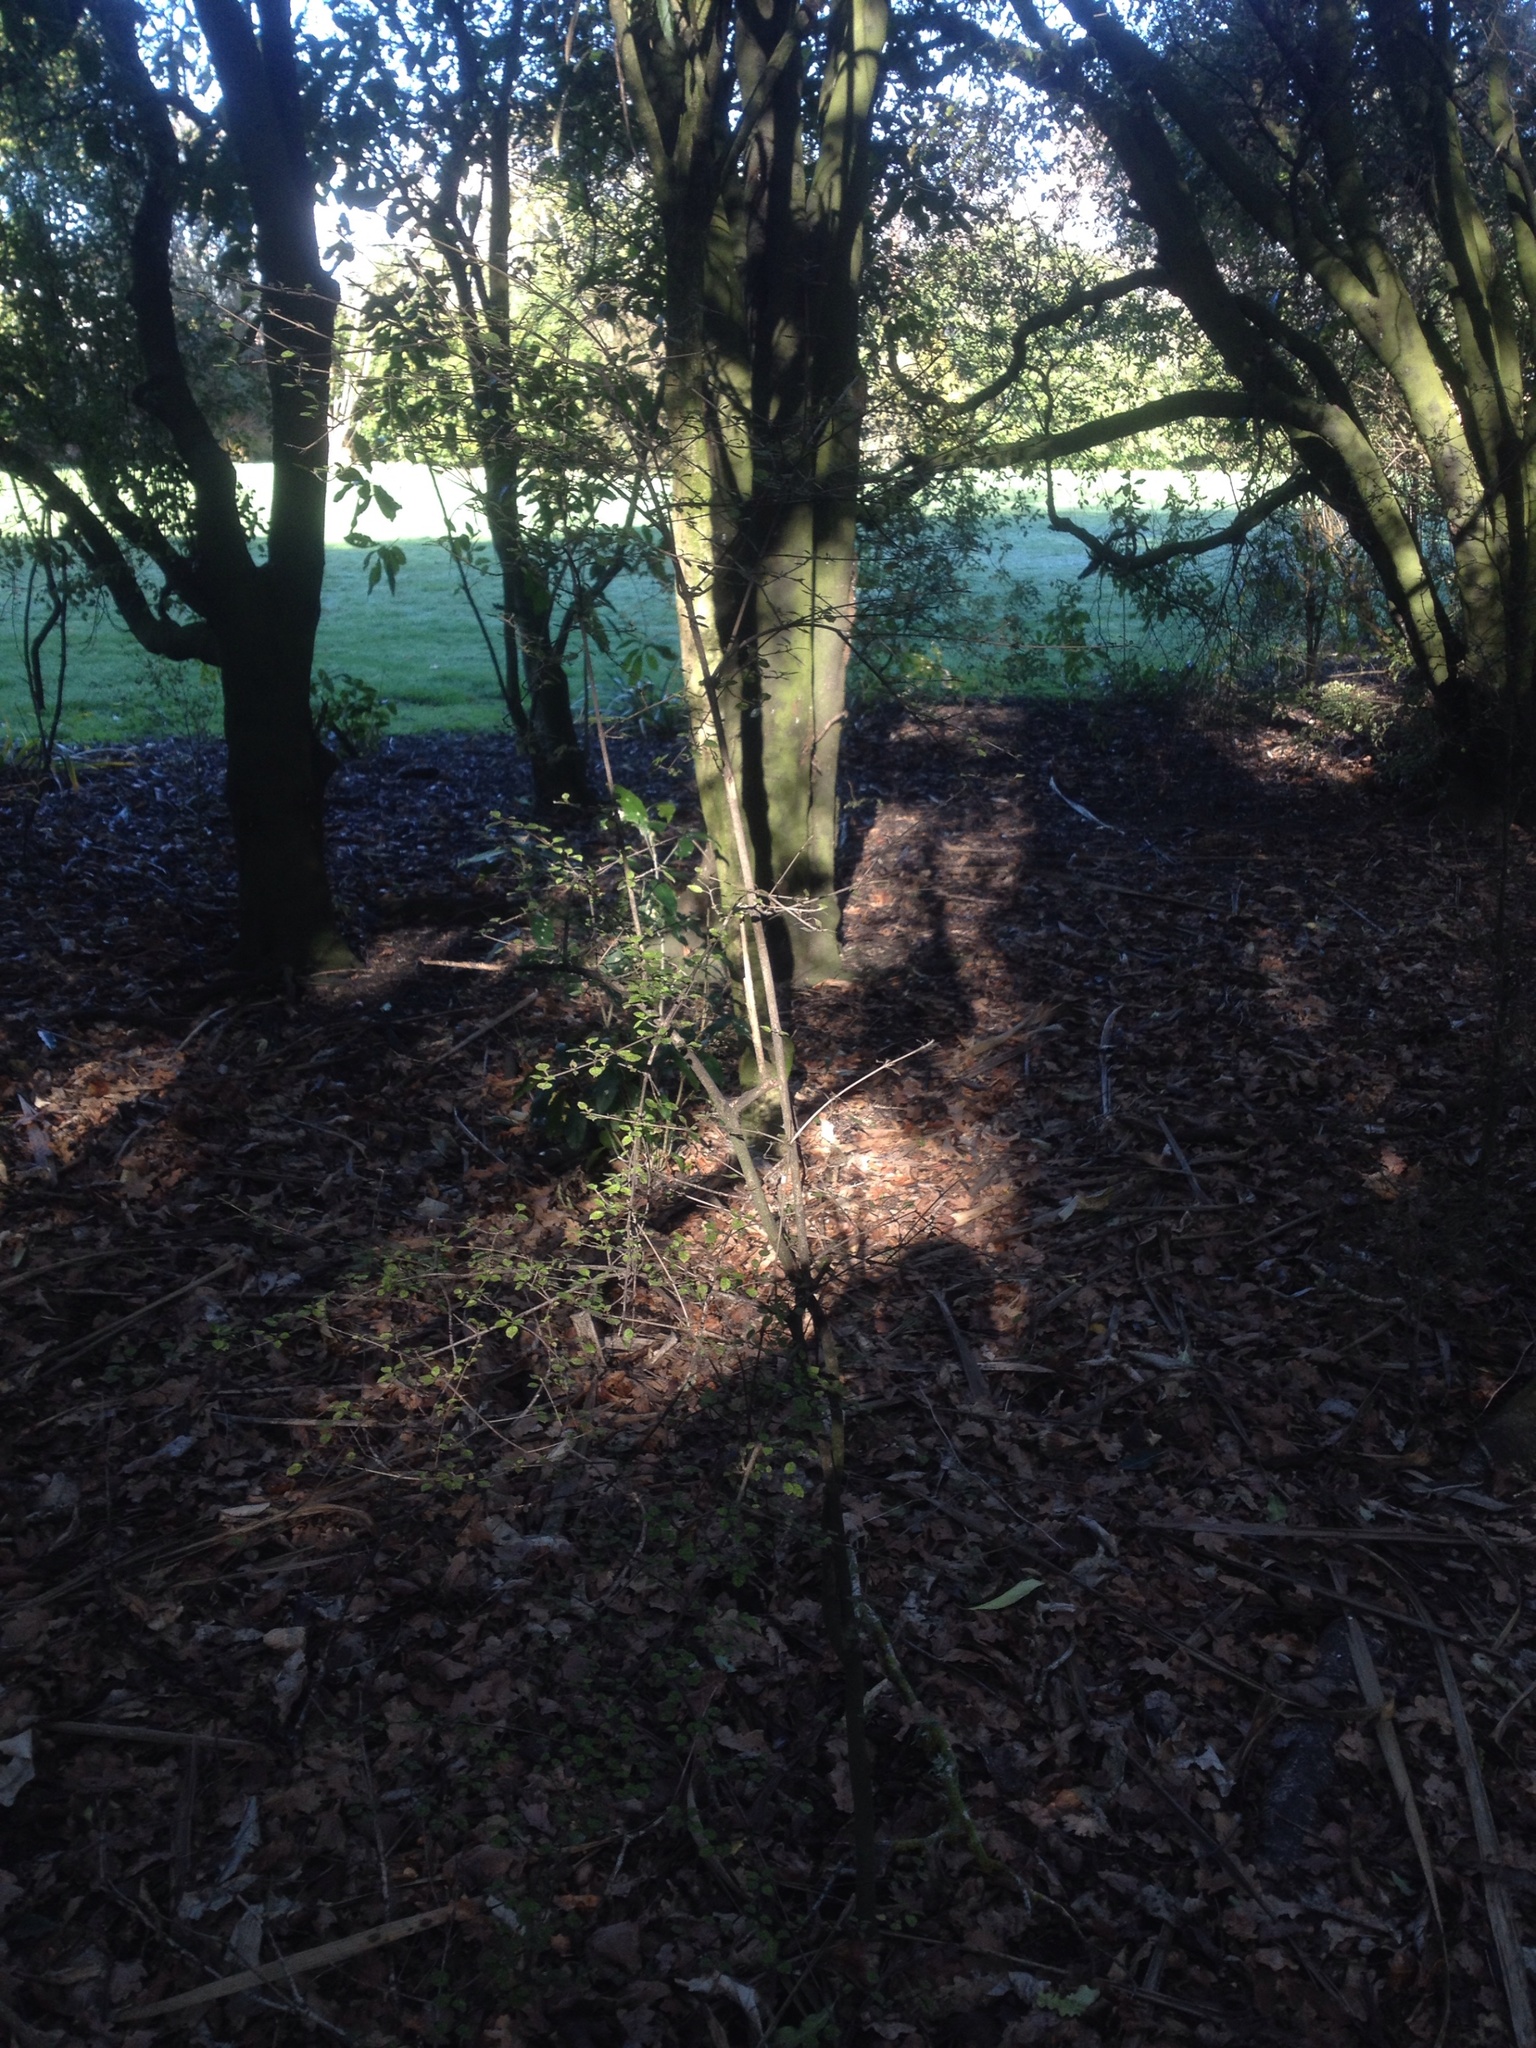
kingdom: Plantae
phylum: Tracheophyta
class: Magnoliopsida
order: Gentianales
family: Rubiaceae
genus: Coprosma
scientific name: Coprosma areolata
